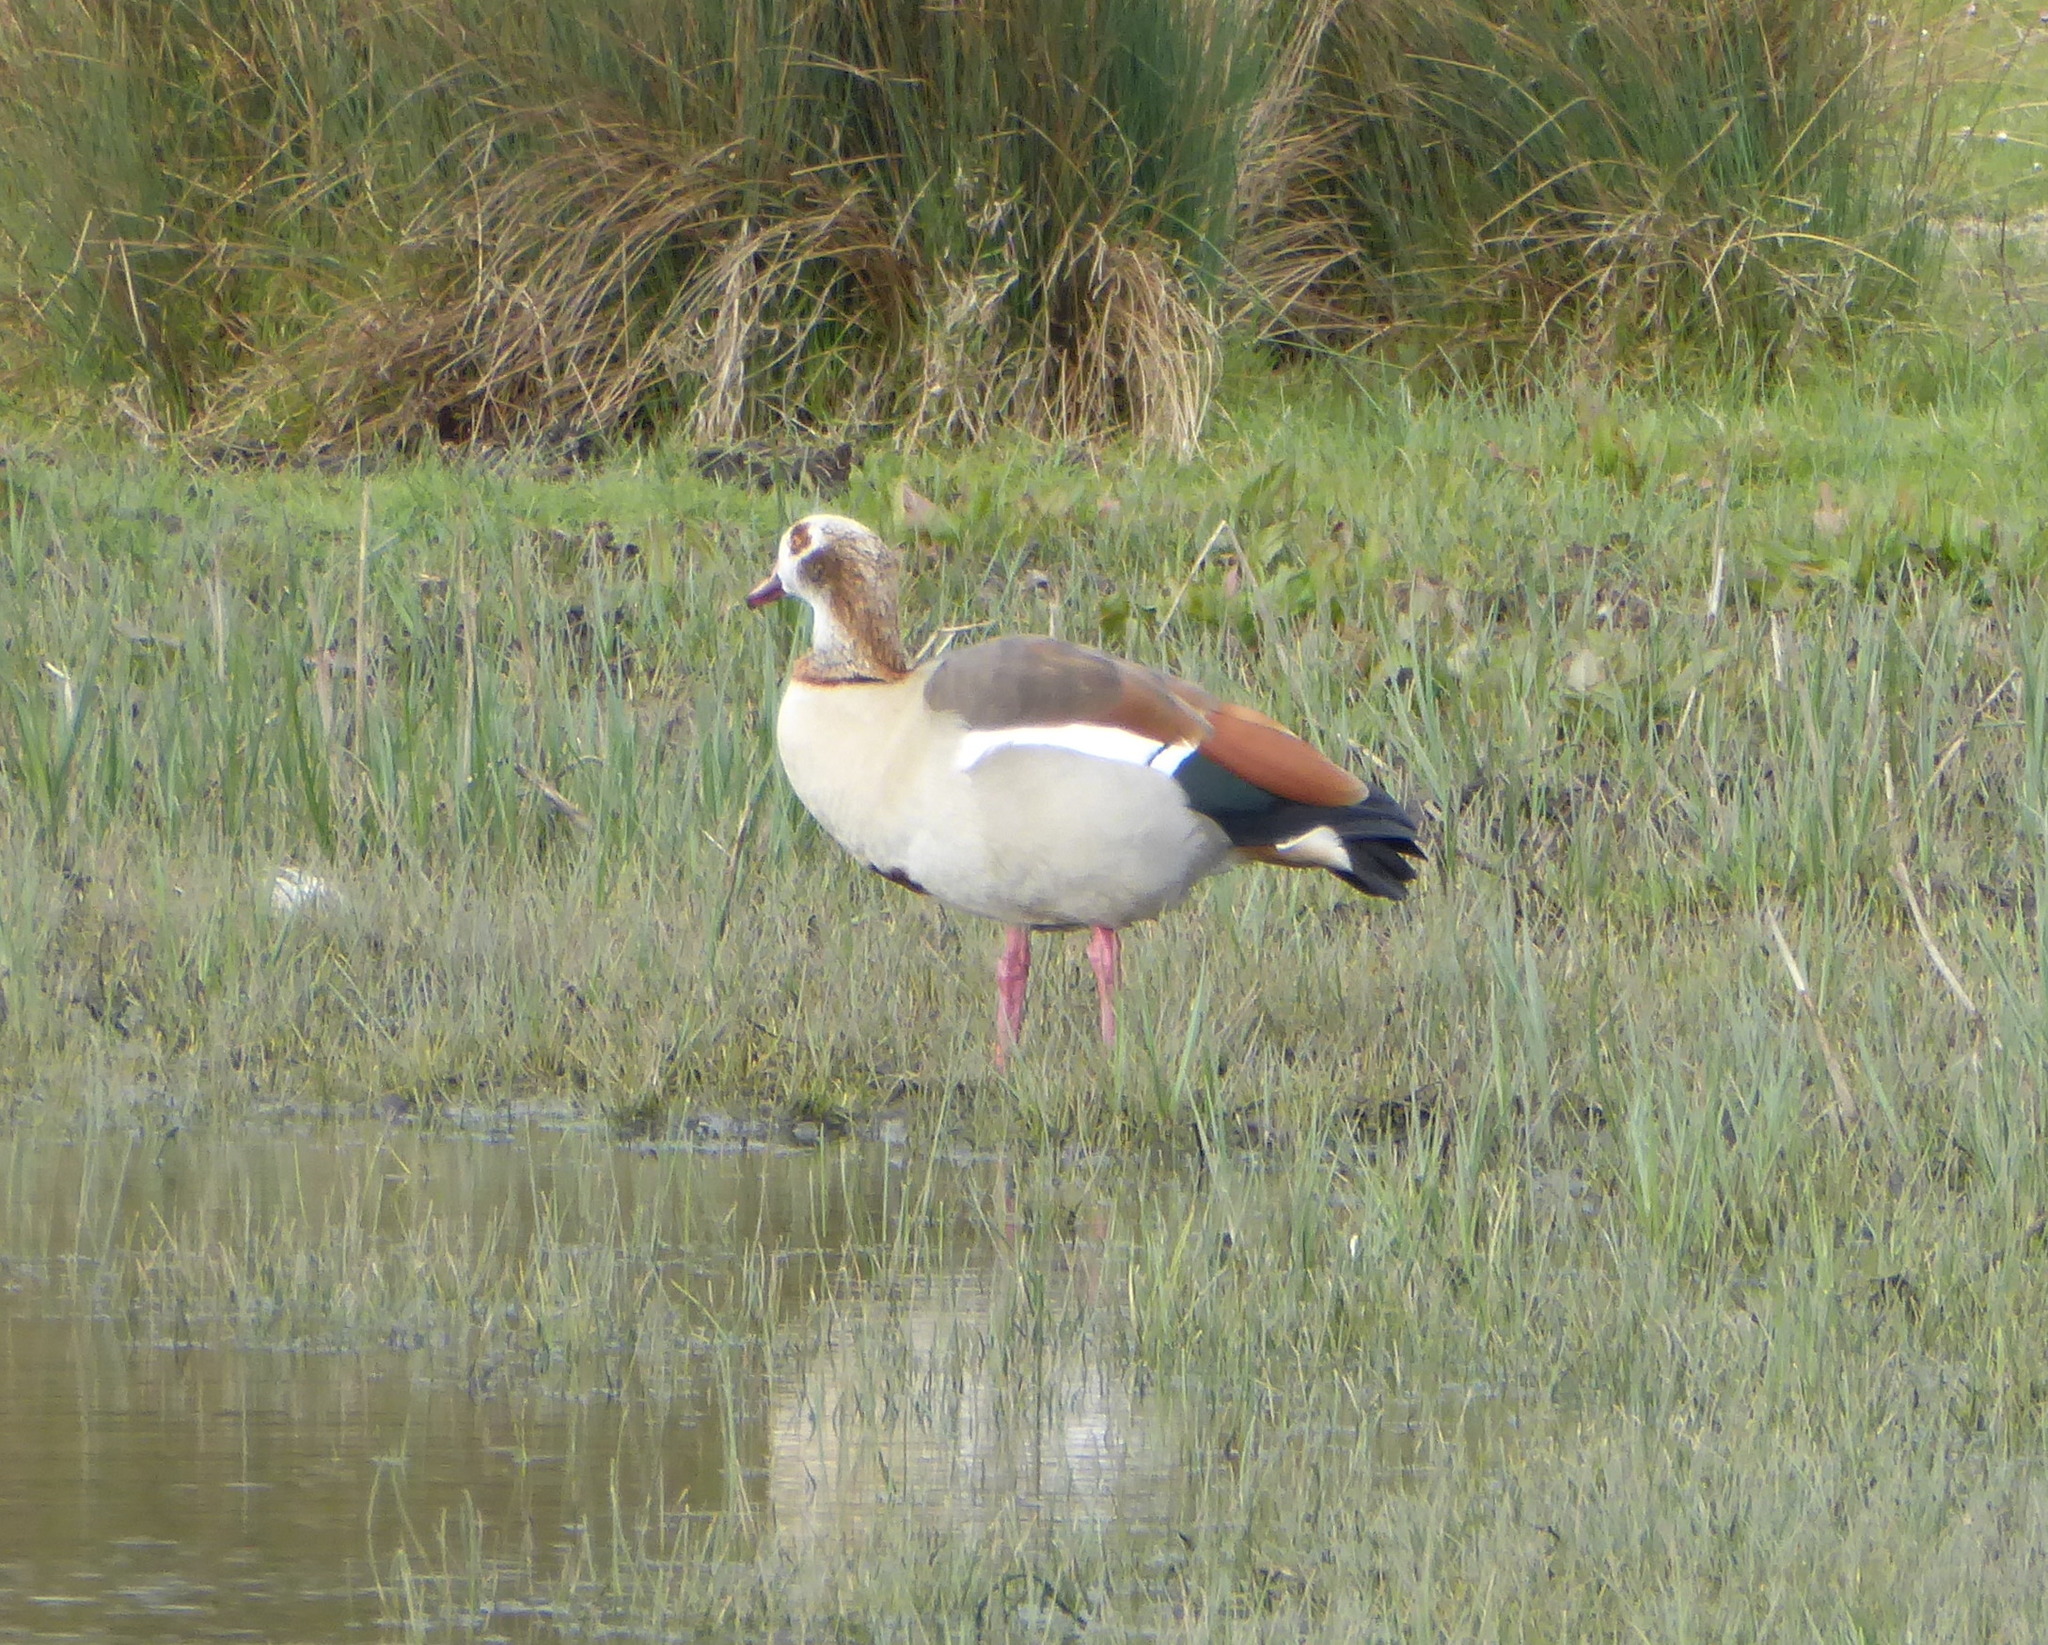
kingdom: Animalia
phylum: Chordata
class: Aves
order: Anseriformes
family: Anatidae
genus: Alopochen
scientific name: Alopochen aegyptiaca
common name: Egyptian goose
